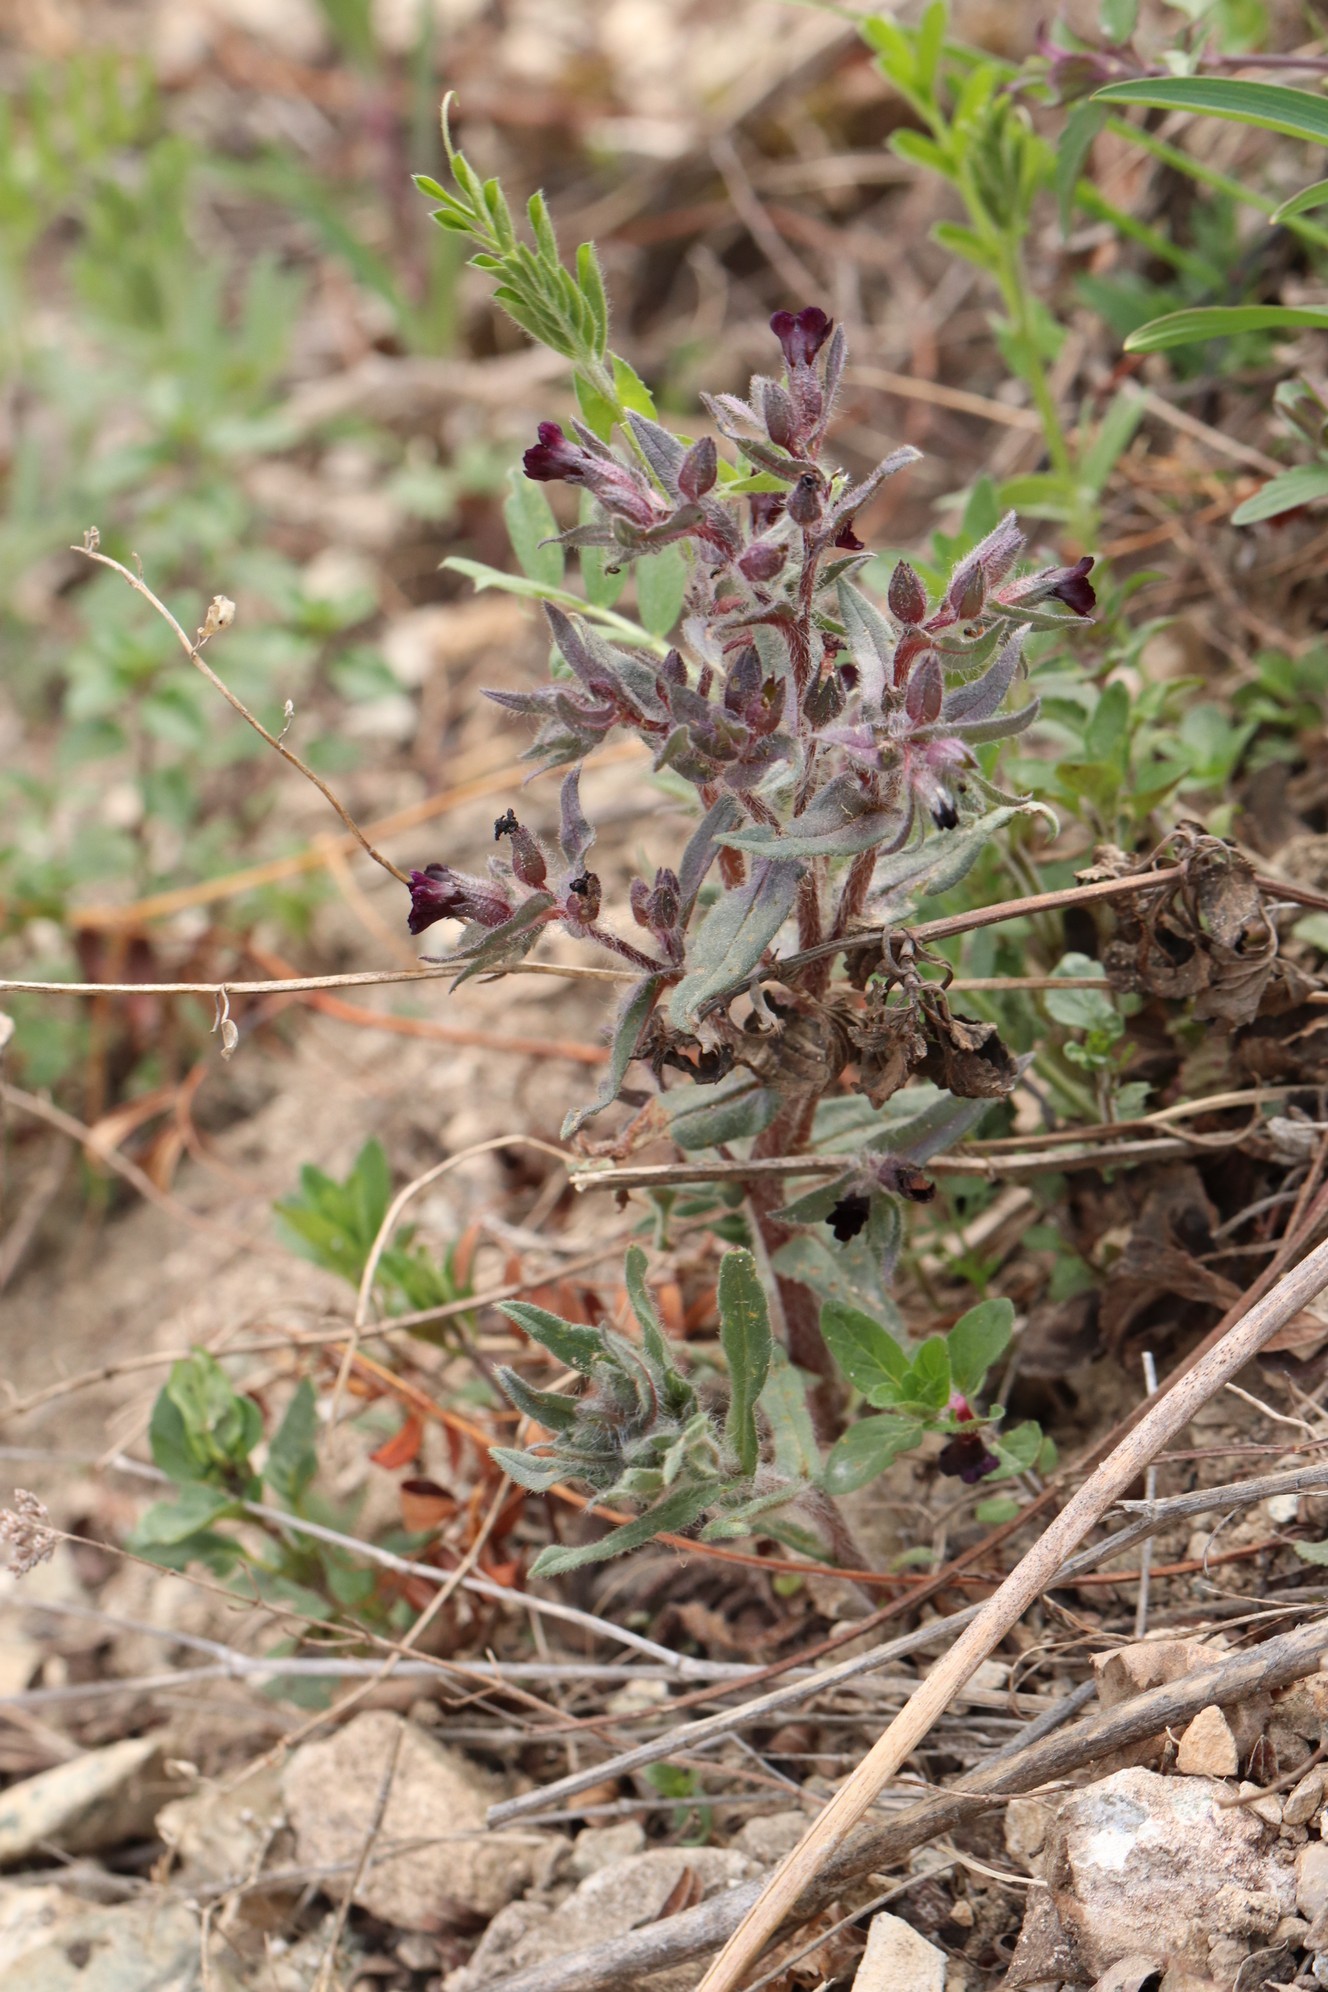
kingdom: Plantae
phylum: Tracheophyta
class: Magnoliopsida
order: Boraginales
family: Boraginaceae
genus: Nonea
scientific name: Nonea pulla
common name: Brown nonea
